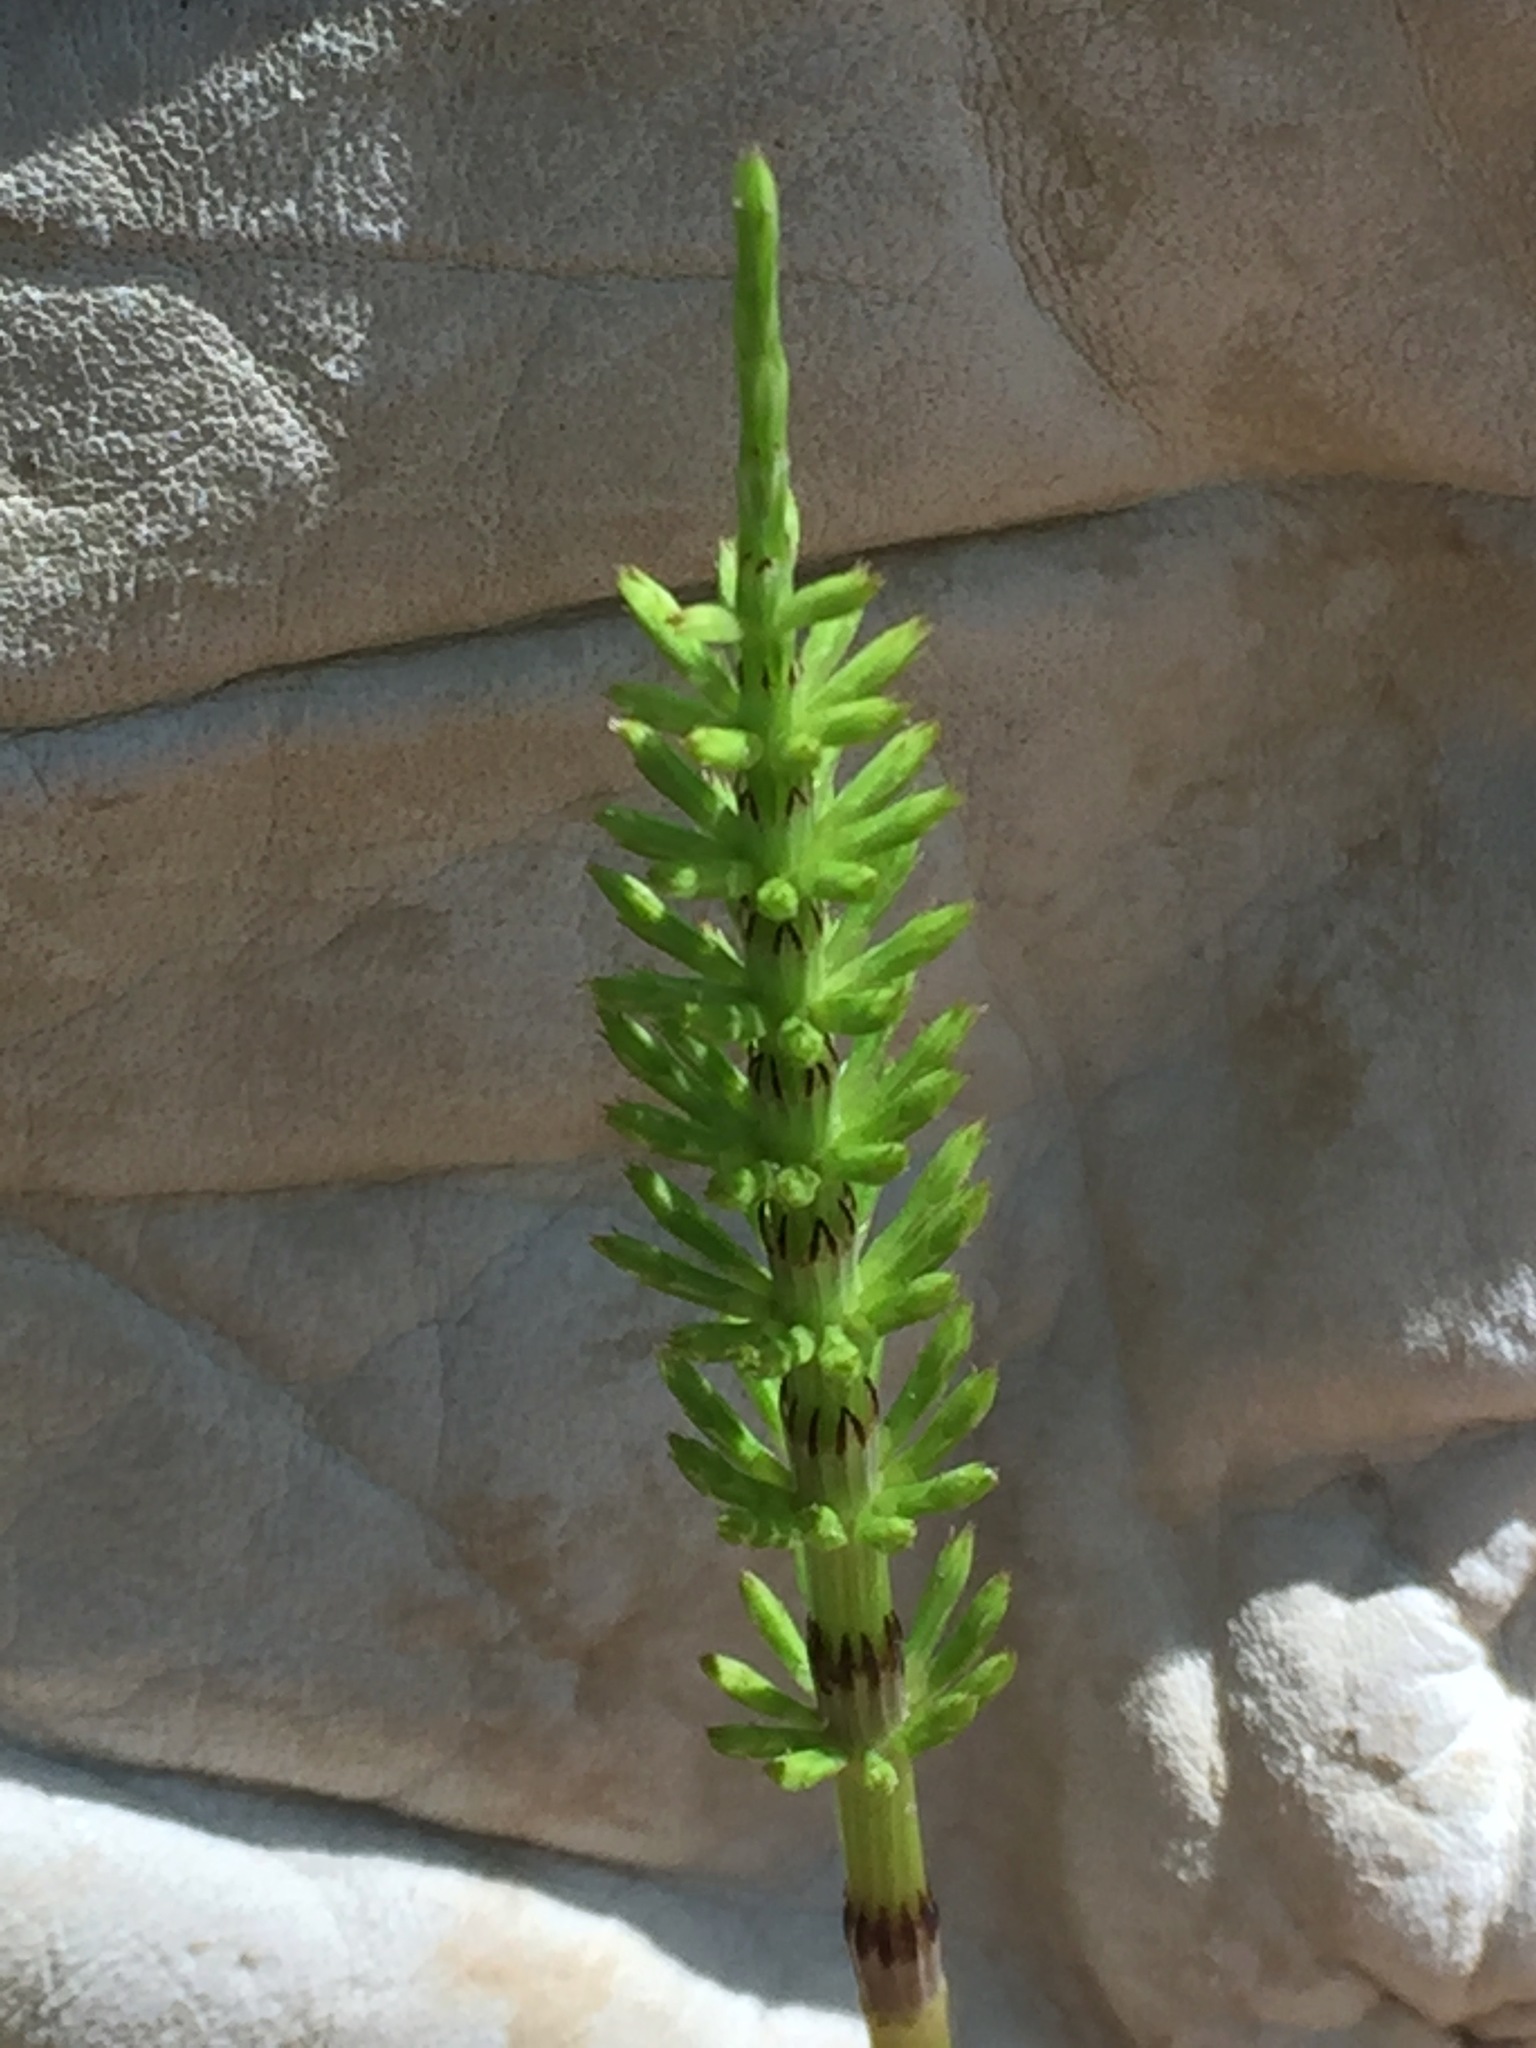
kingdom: Plantae
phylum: Tracheophyta
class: Polypodiopsida
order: Equisetales
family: Equisetaceae
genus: Equisetum
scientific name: Equisetum arvense
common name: Field horsetail
